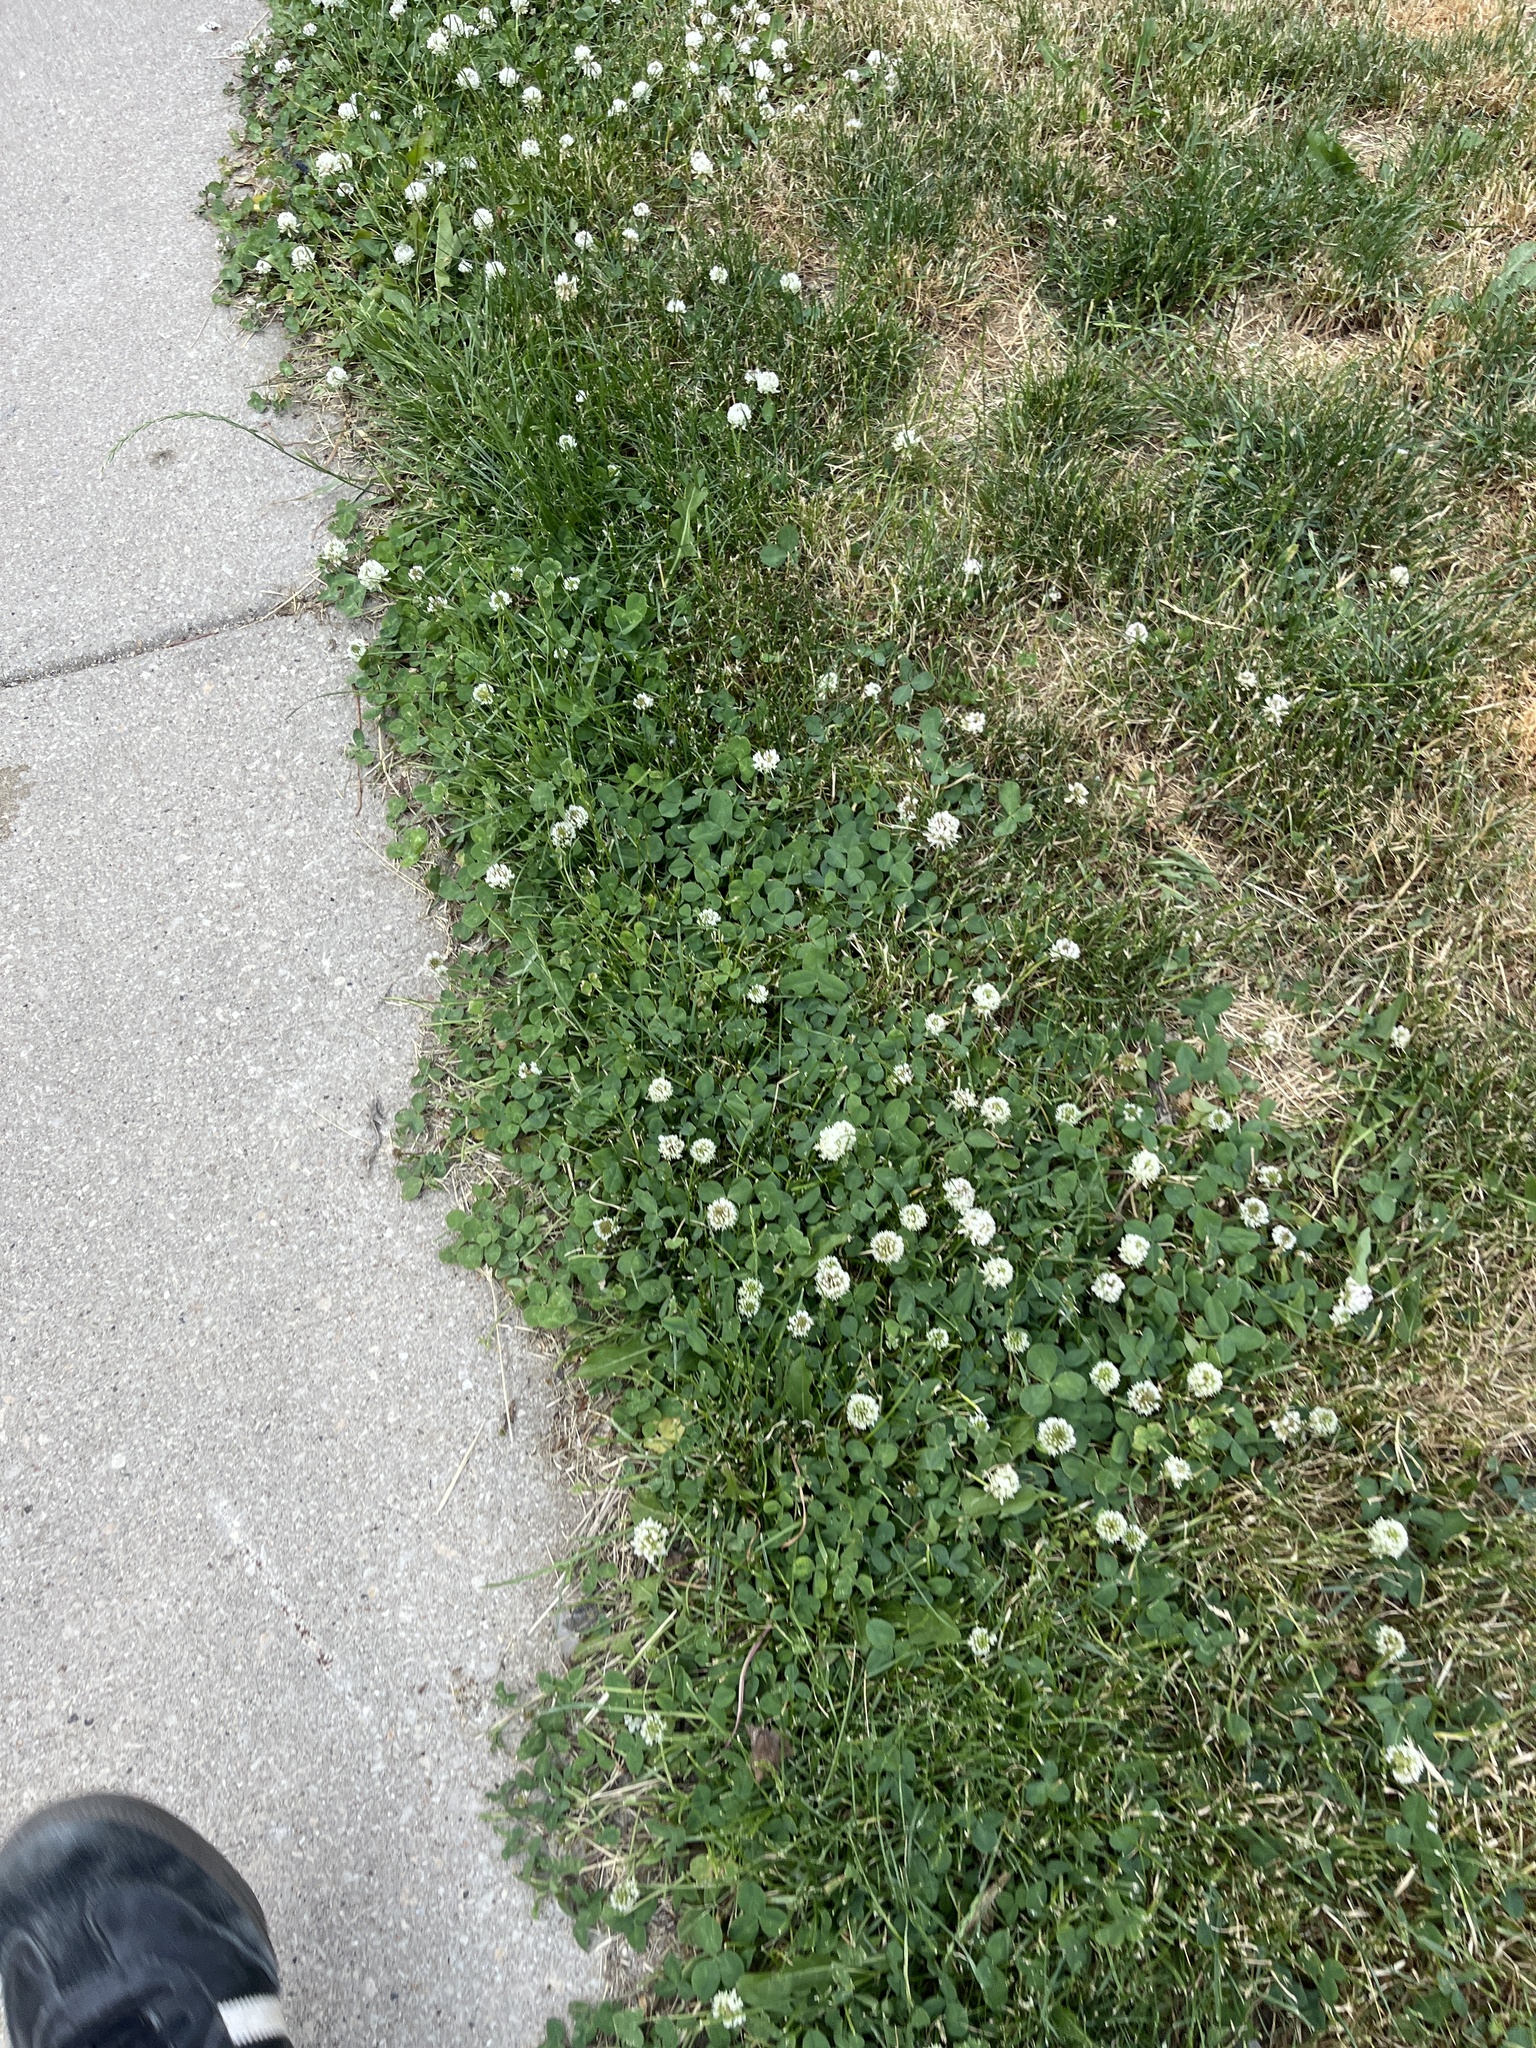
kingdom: Plantae
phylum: Tracheophyta
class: Magnoliopsida
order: Fabales
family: Fabaceae
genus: Trifolium
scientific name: Trifolium repens
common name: White clover
